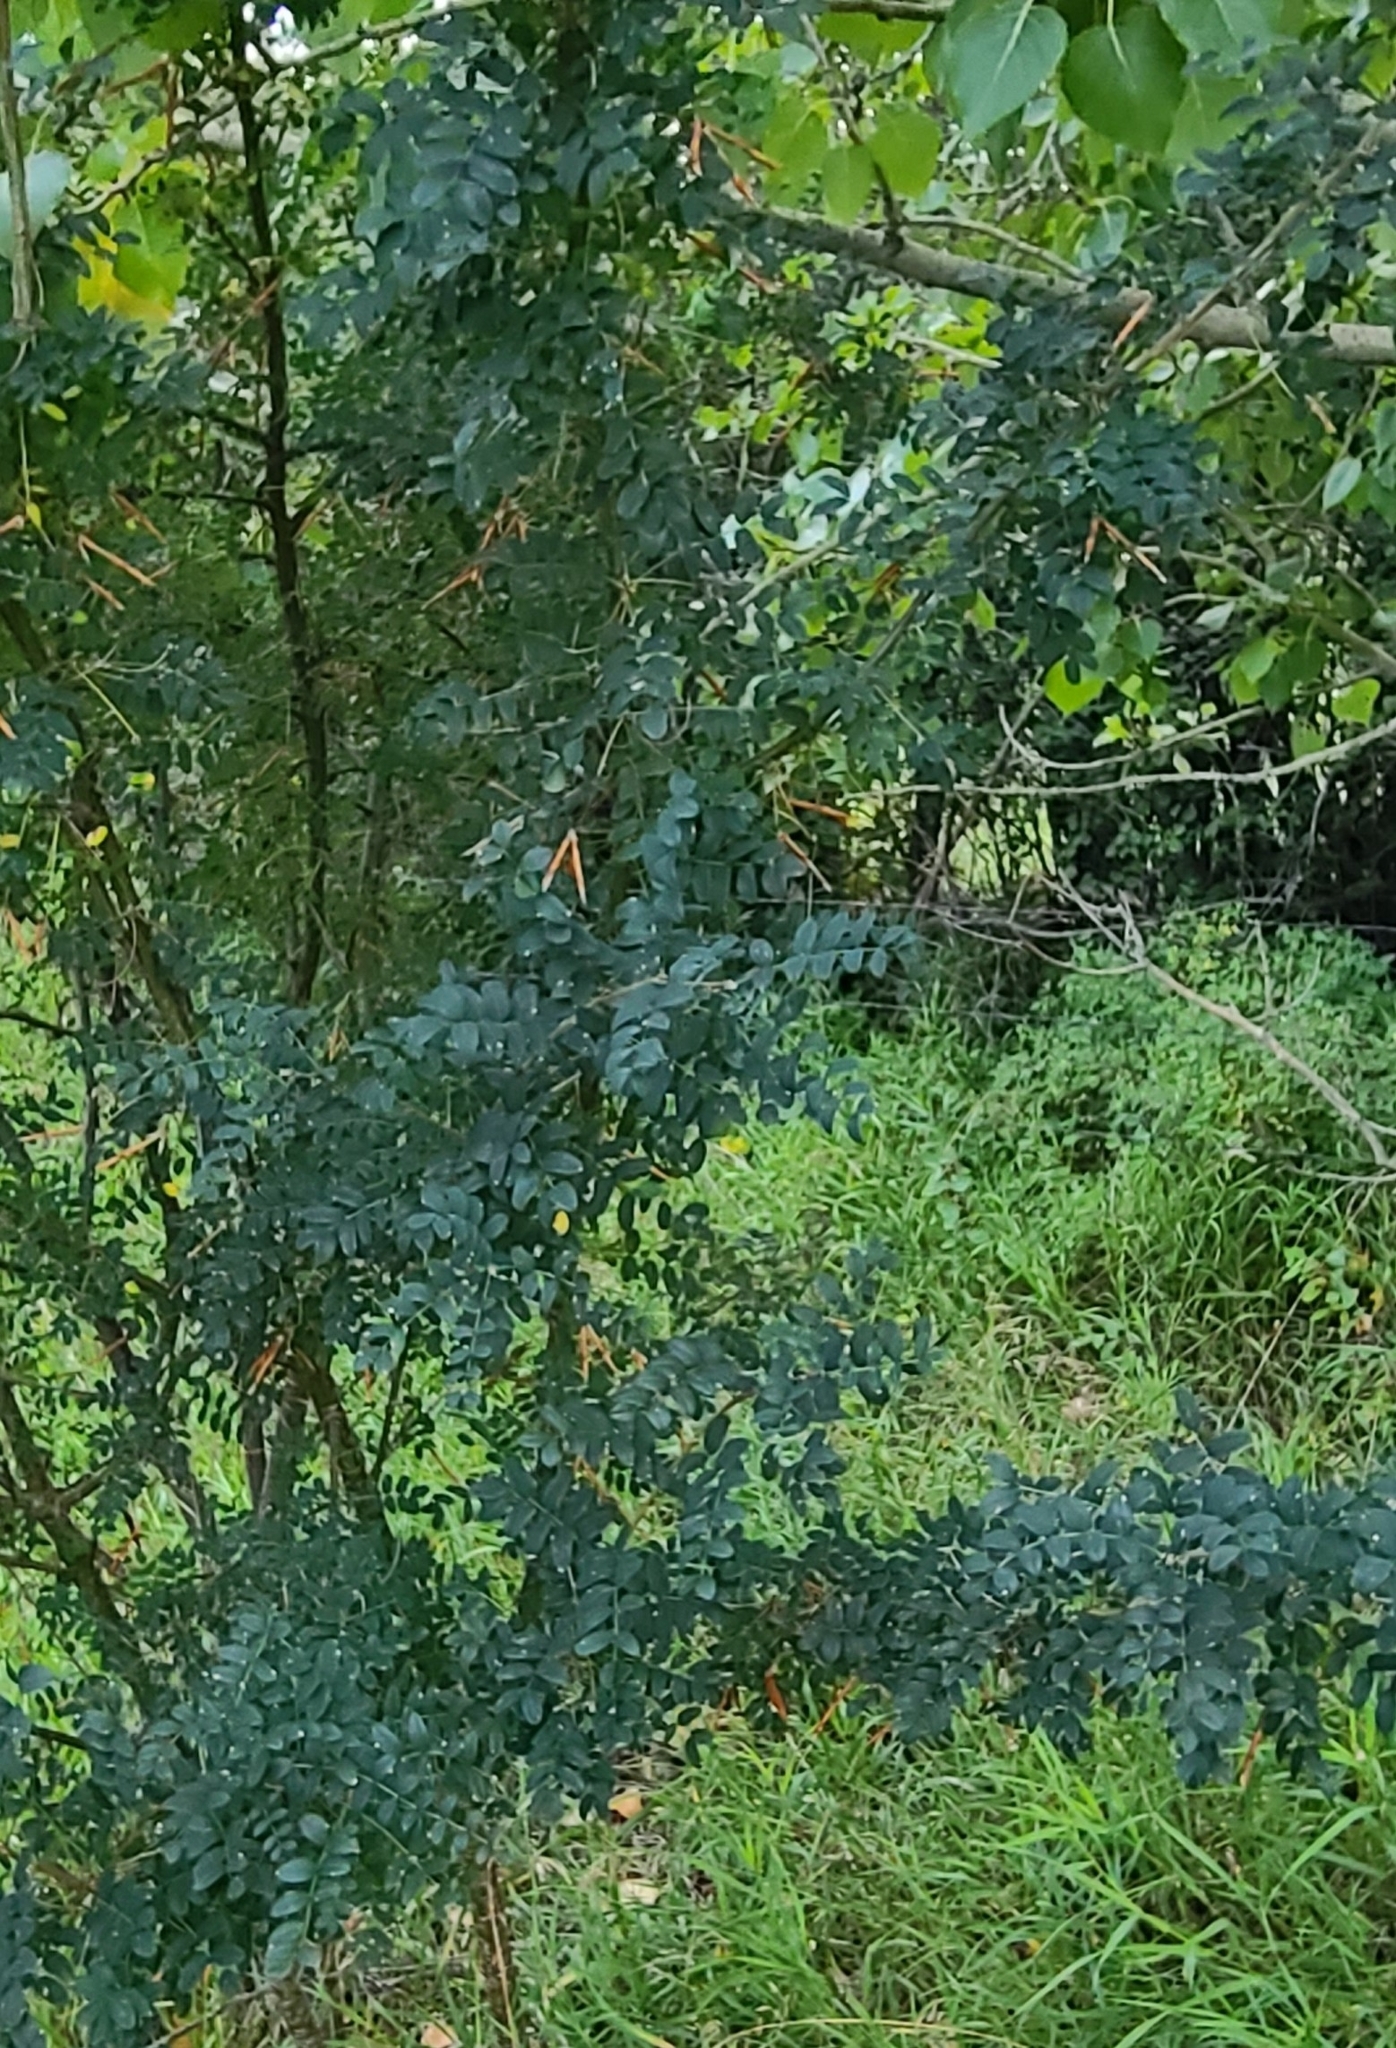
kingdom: Plantae
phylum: Tracheophyta
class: Magnoliopsida
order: Fabales
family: Fabaceae
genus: Caragana
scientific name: Caragana arborescens
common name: Siberian peashrub
